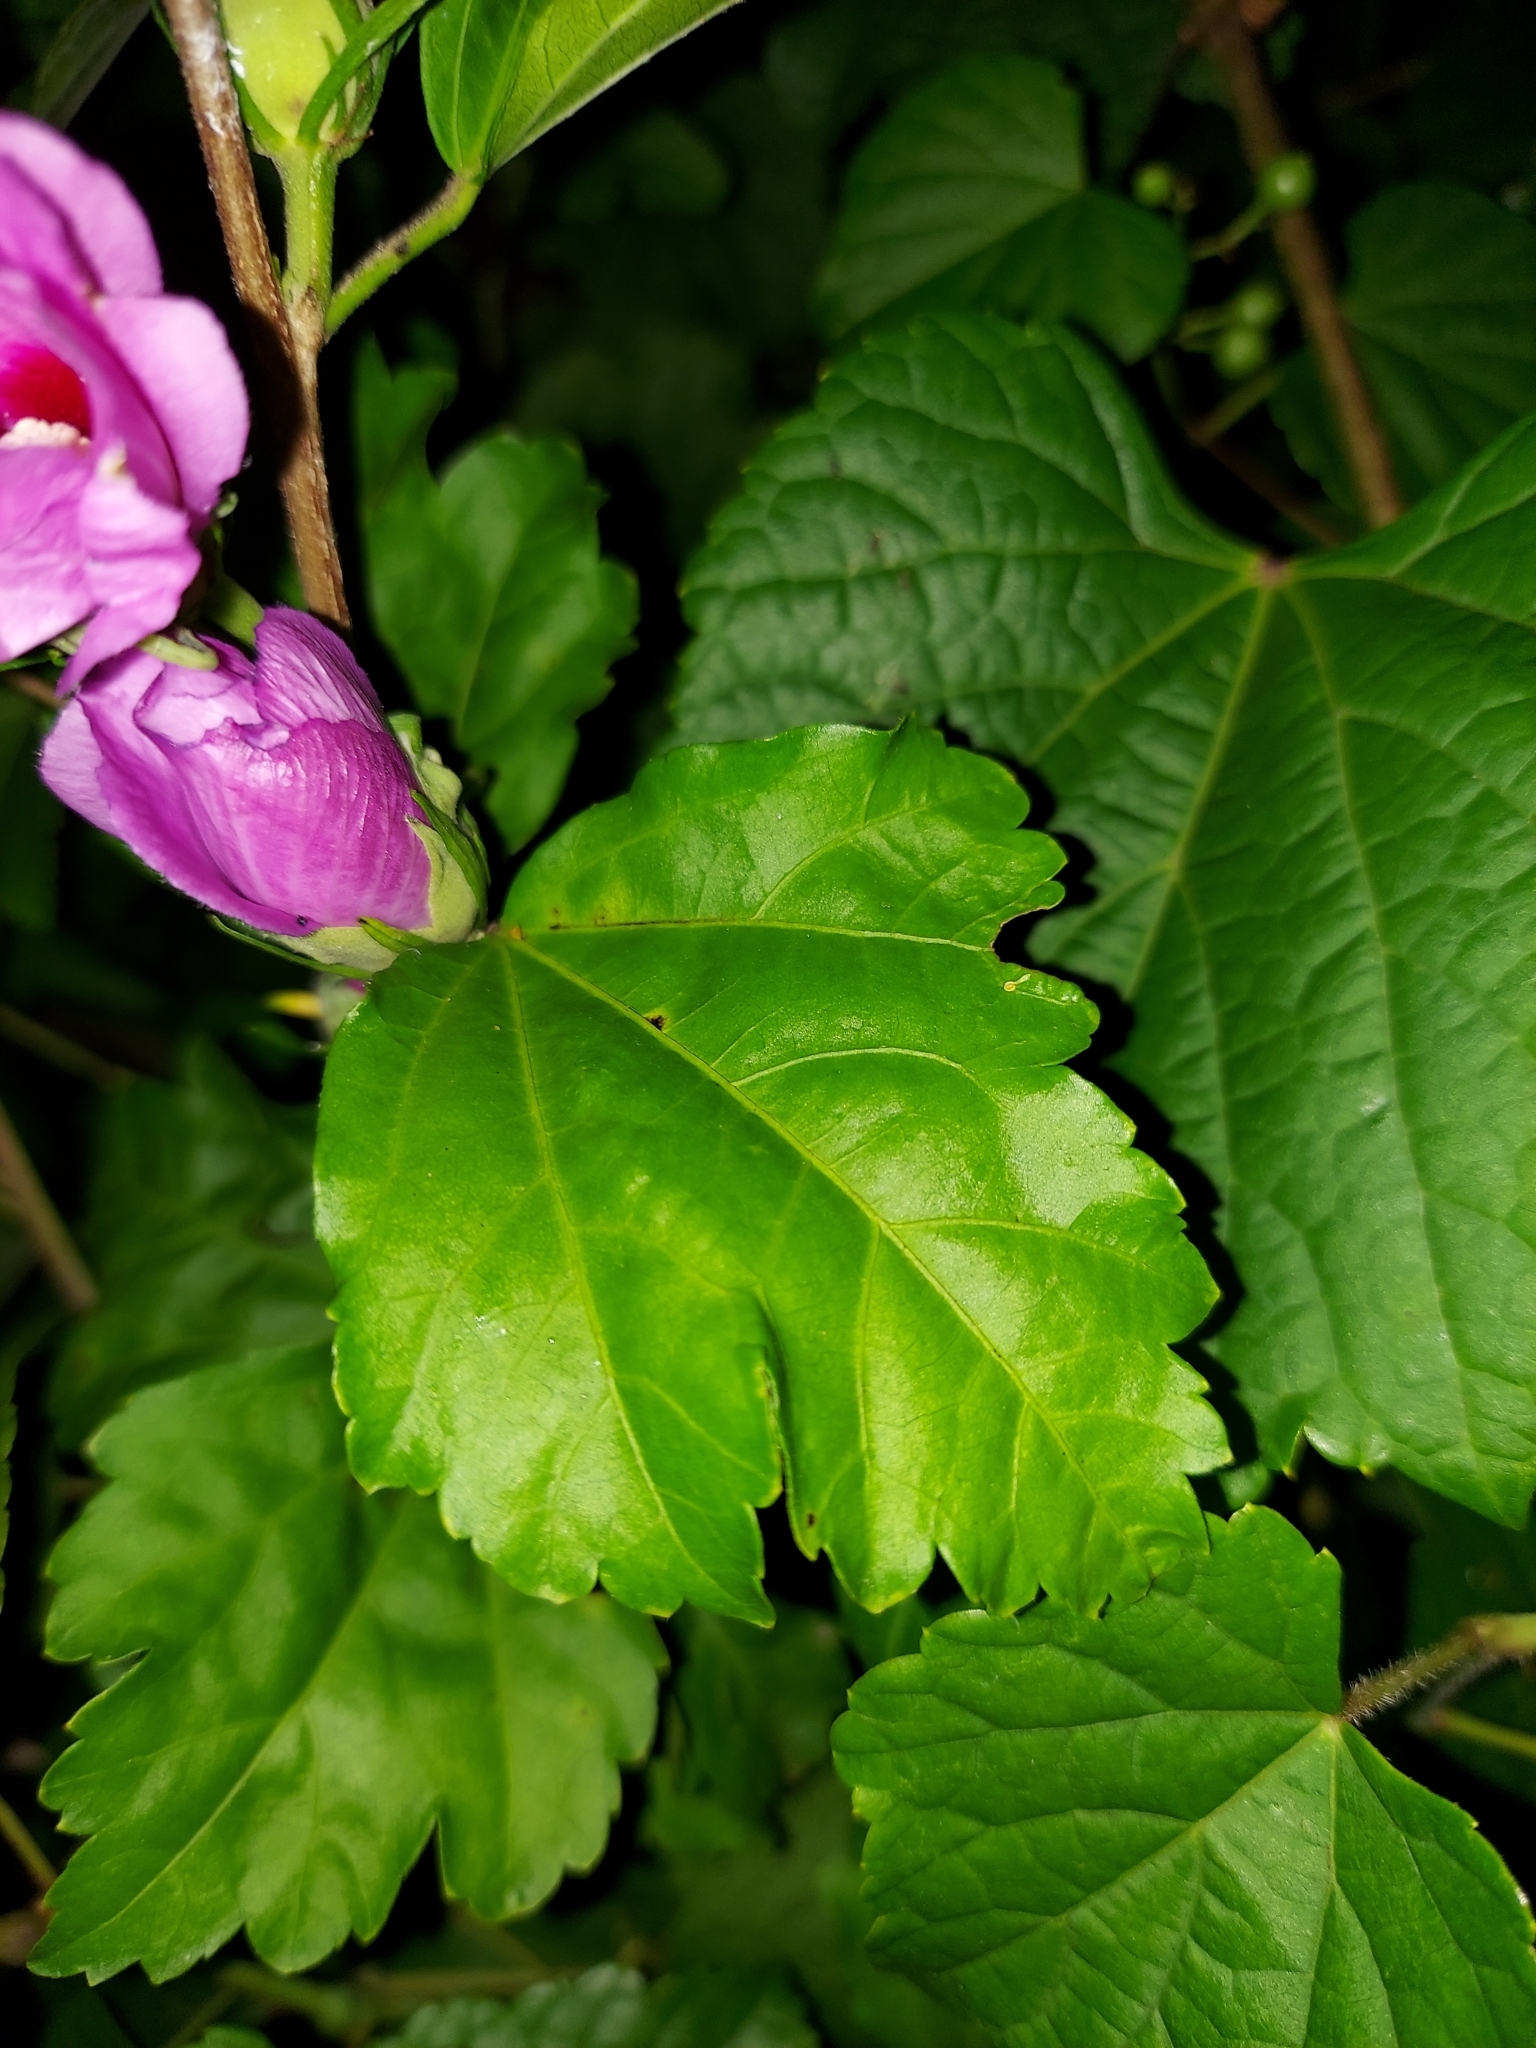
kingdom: Plantae
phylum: Tracheophyta
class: Magnoliopsida
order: Malvales
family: Malvaceae
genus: Hibiscus
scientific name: Hibiscus syriacus
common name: Syrian ketmia
